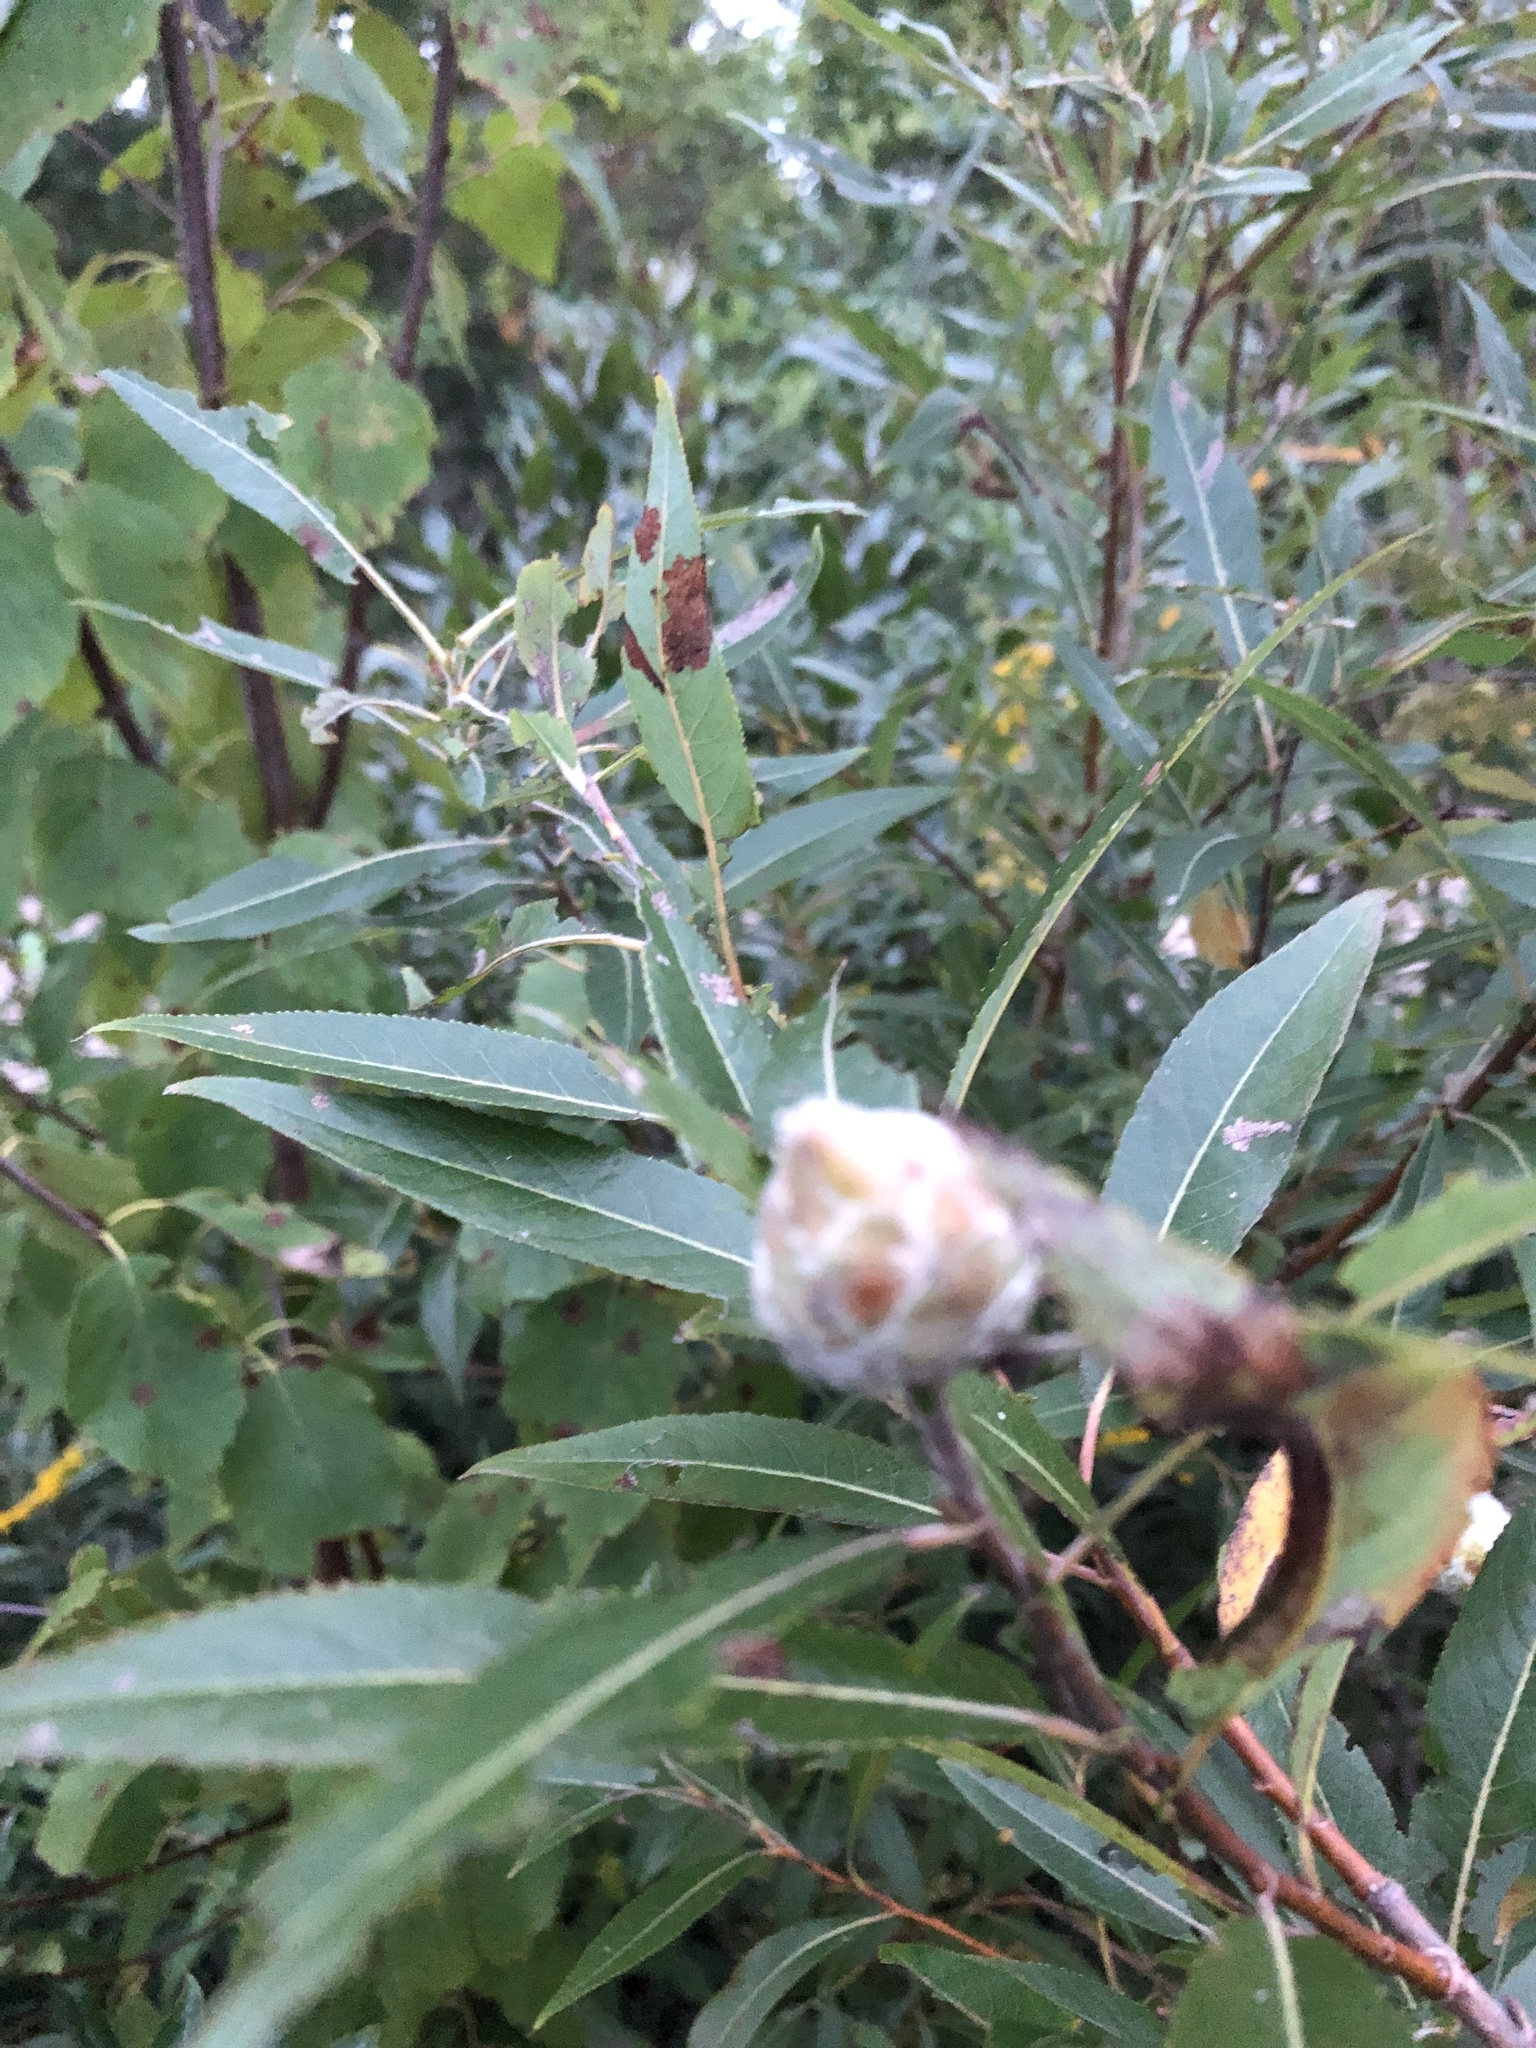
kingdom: Animalia
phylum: Arthropoda
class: Insecta
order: Diptera
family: Cecidomyiidae
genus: Rabdophaga
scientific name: Rabdophaga strobiloides
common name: Willow pinecone gall midge
